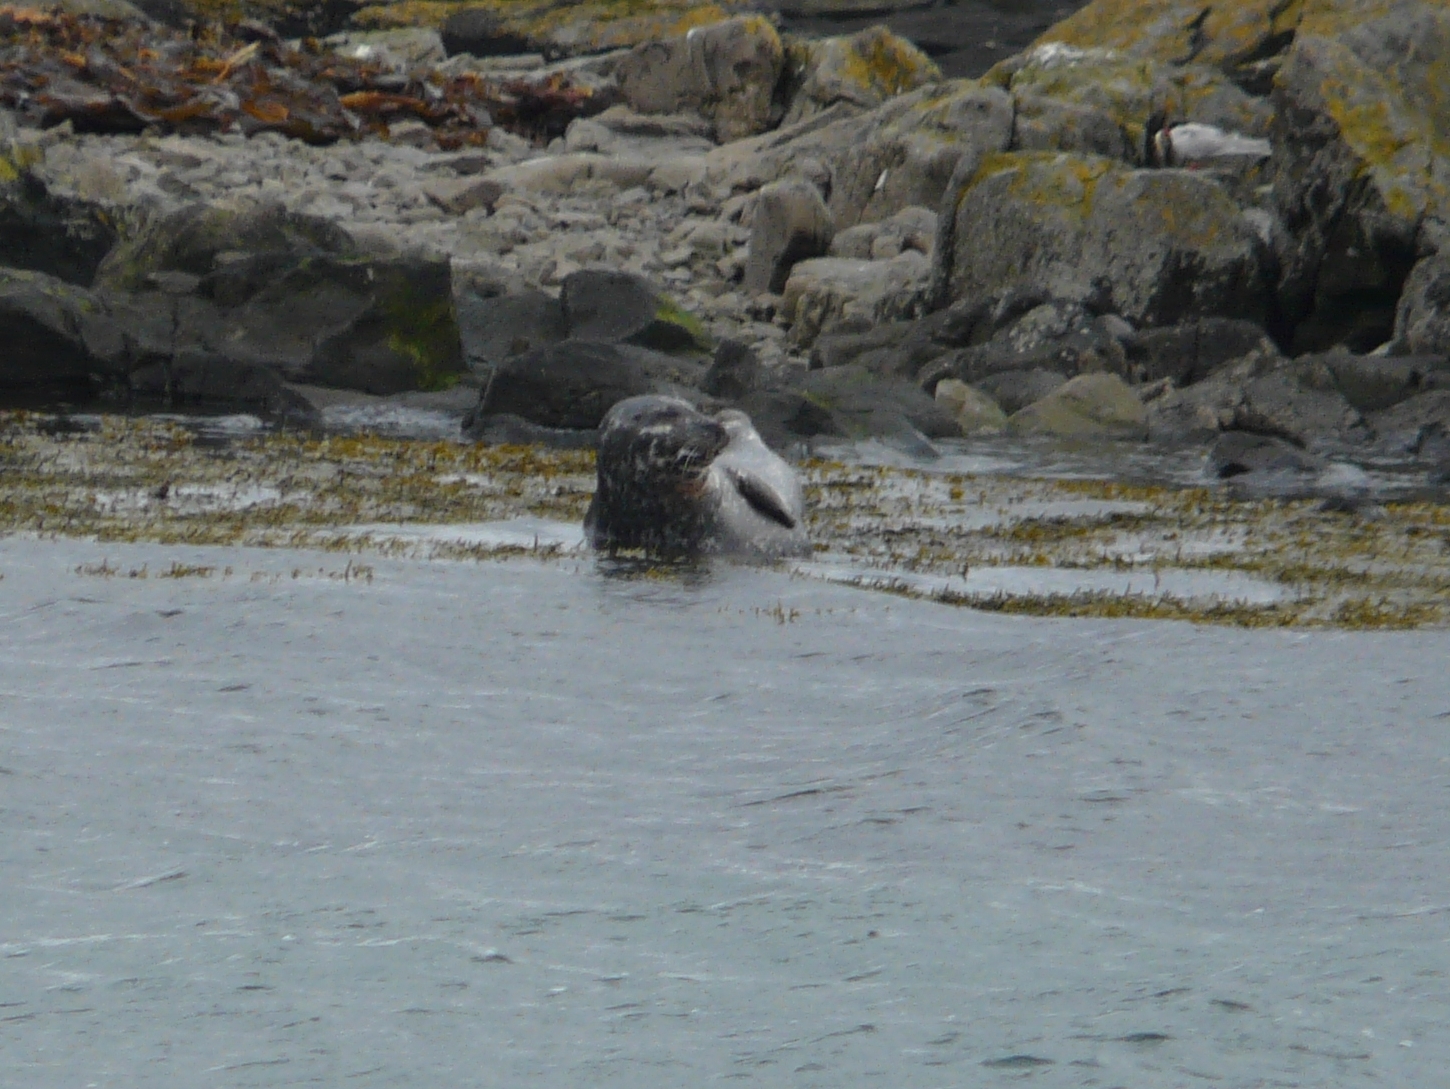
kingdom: Animalia
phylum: Chordata
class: Mammalia
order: Carnivora
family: Phocidae
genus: Phoca
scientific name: Phoca vitulina
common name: Harbor seal
